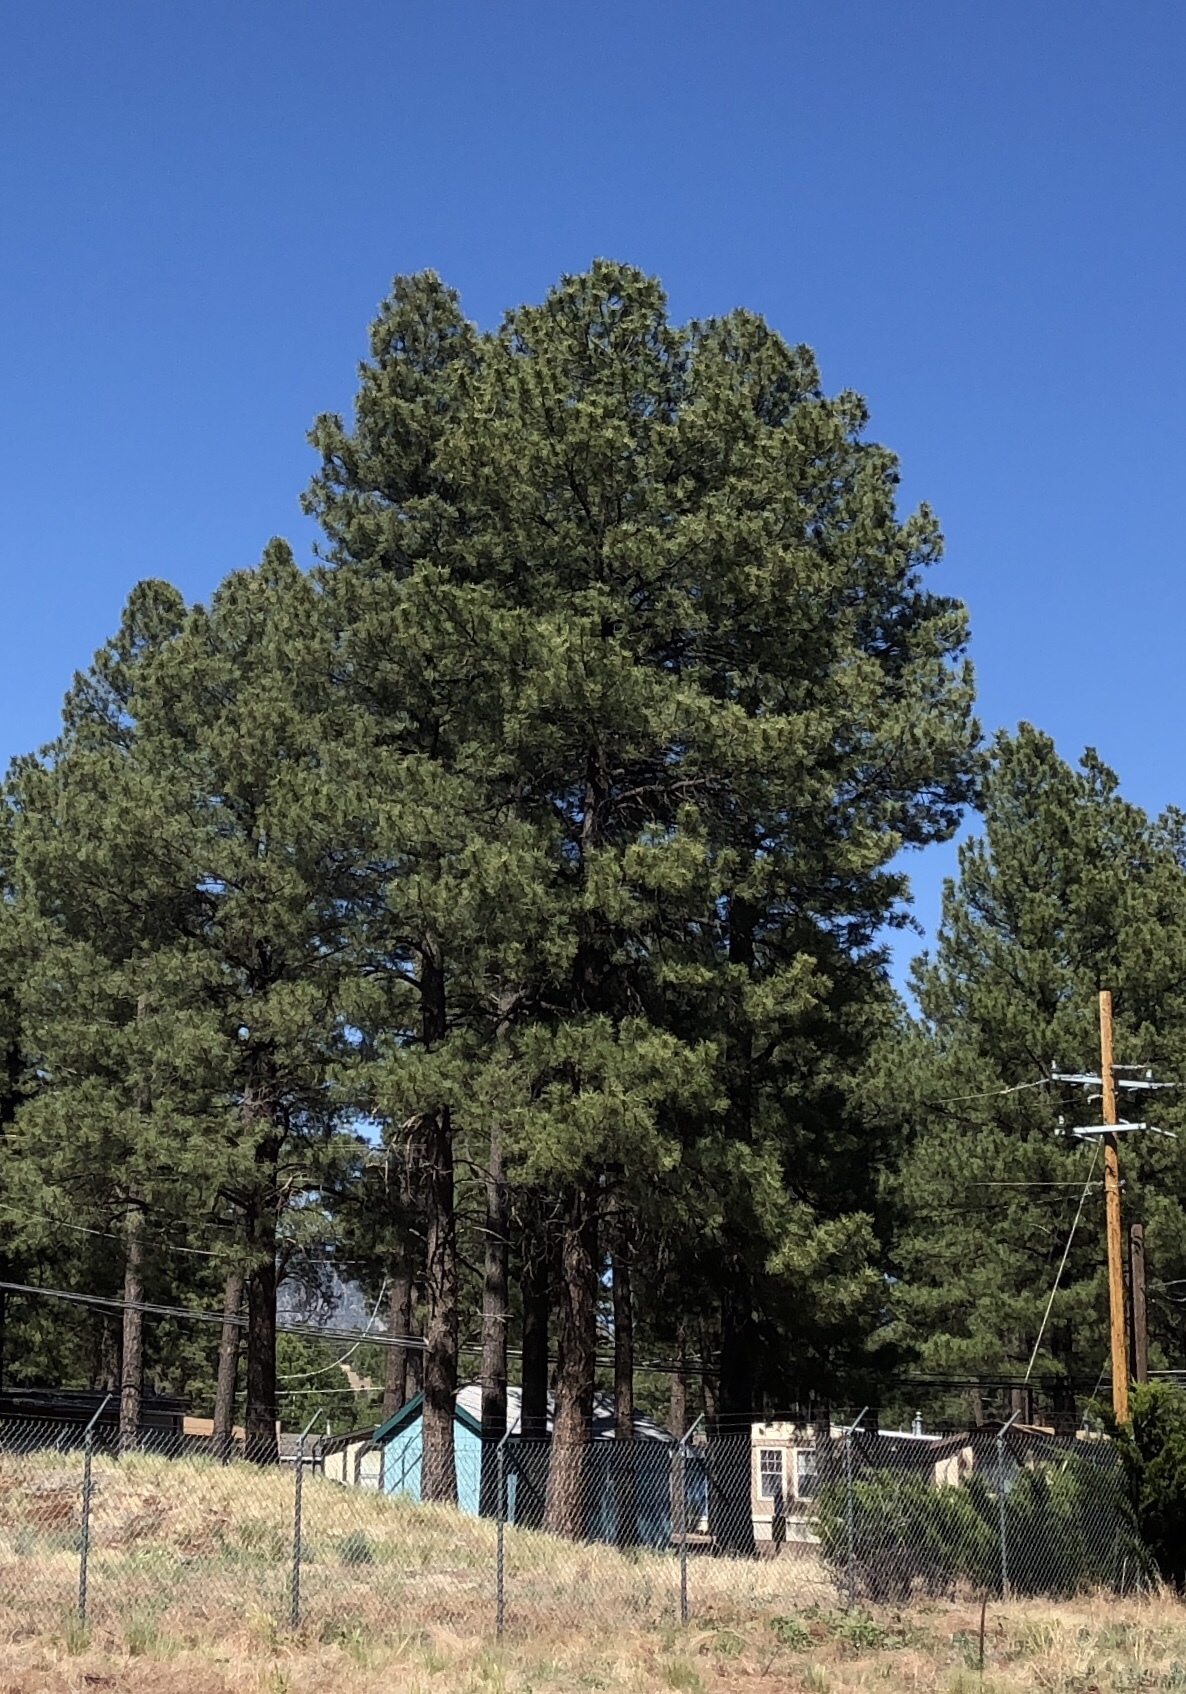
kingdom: Plantae
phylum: Tracheophyta
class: Pinopsida
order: Pinales
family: Pinaceae
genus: Pinus
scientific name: Pinus ponderosa
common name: Western yellow-pine
